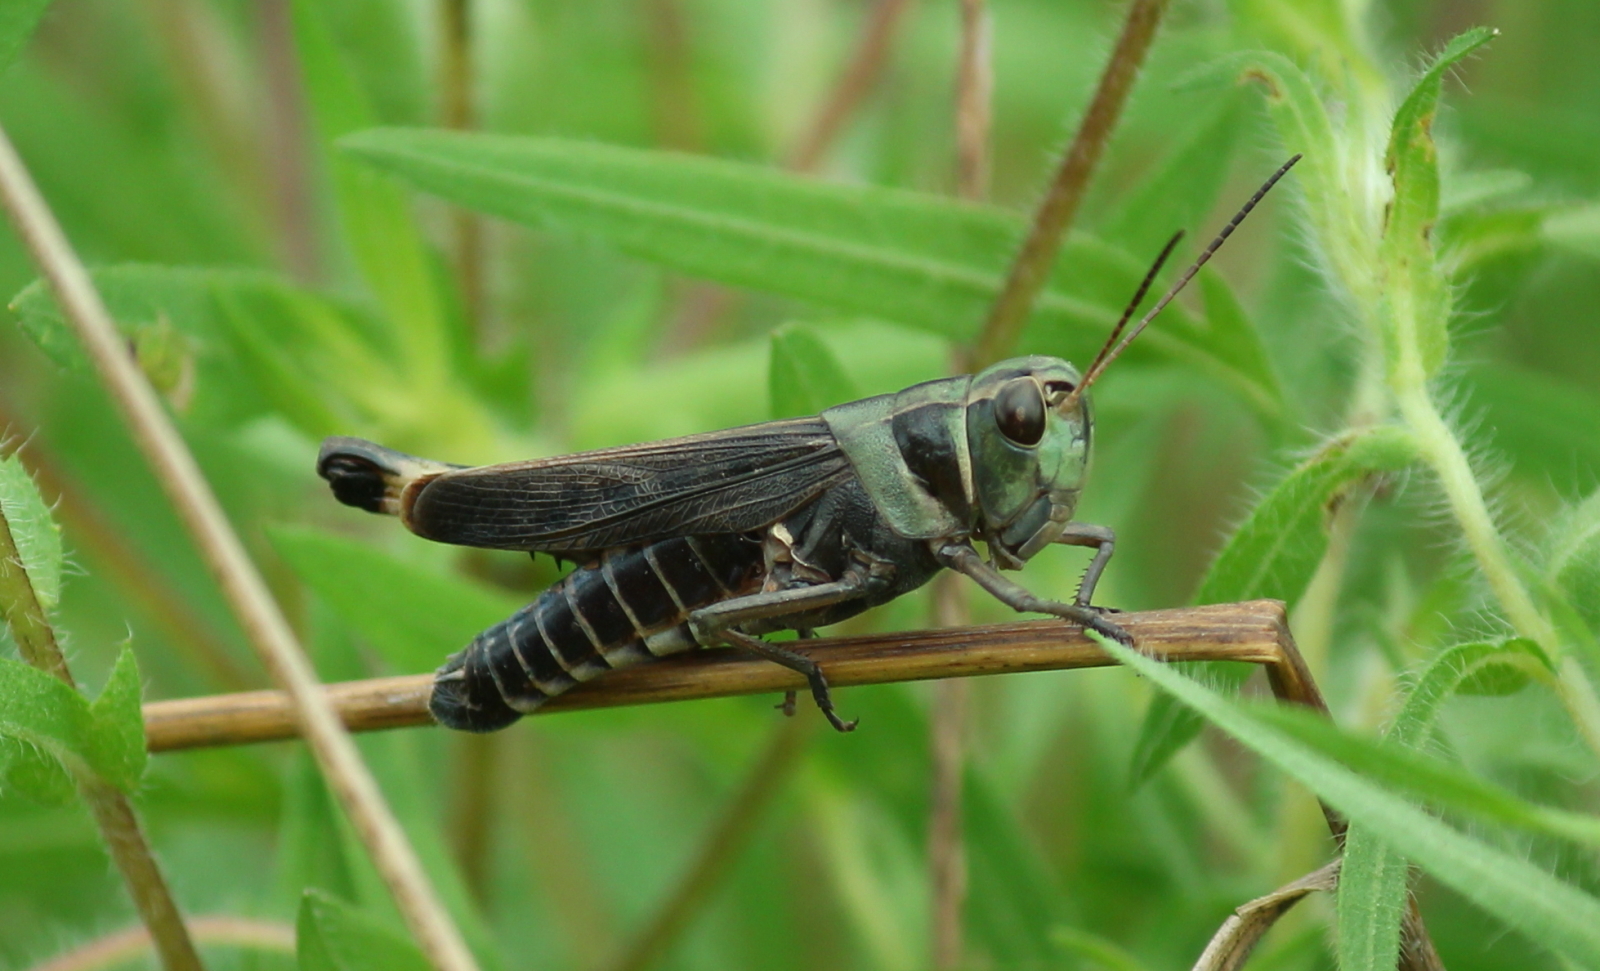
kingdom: Animalia
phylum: Arthropoda
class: Insecta
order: Orthoptera
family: Acrididae
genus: Boopedon
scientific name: Boopedon gracile
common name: Graceful range grasshopper
